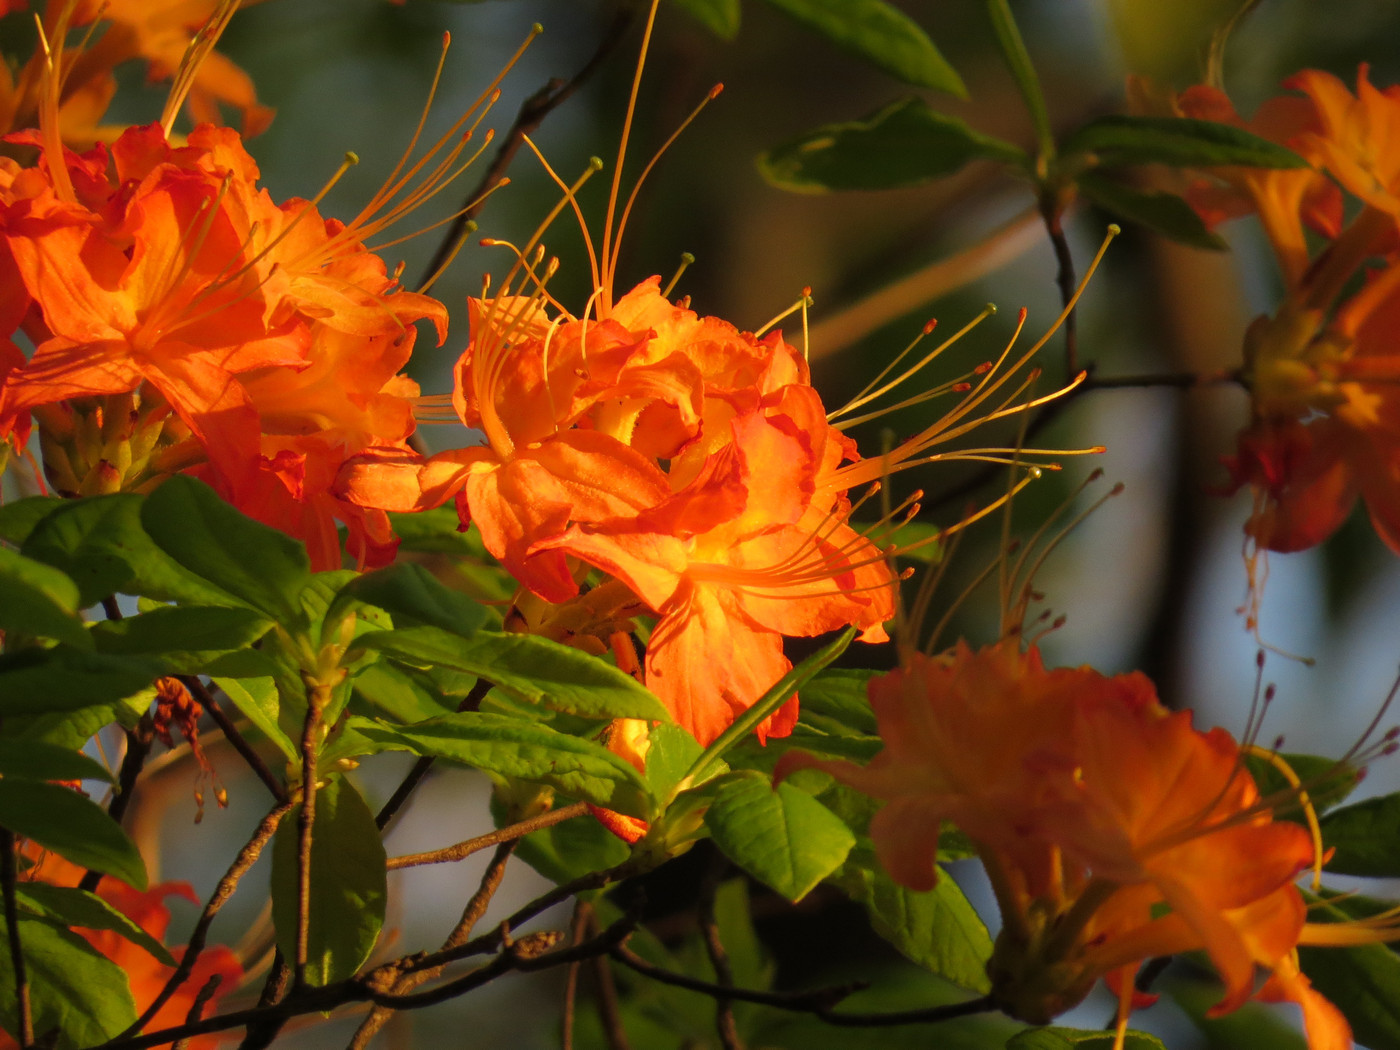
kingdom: Plantae
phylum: Tracheophyta
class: Magnoliopsida
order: Ericales
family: Ericaceae
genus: Rhododendron
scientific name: Rhododendron calendulaceum
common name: Flame azalea
